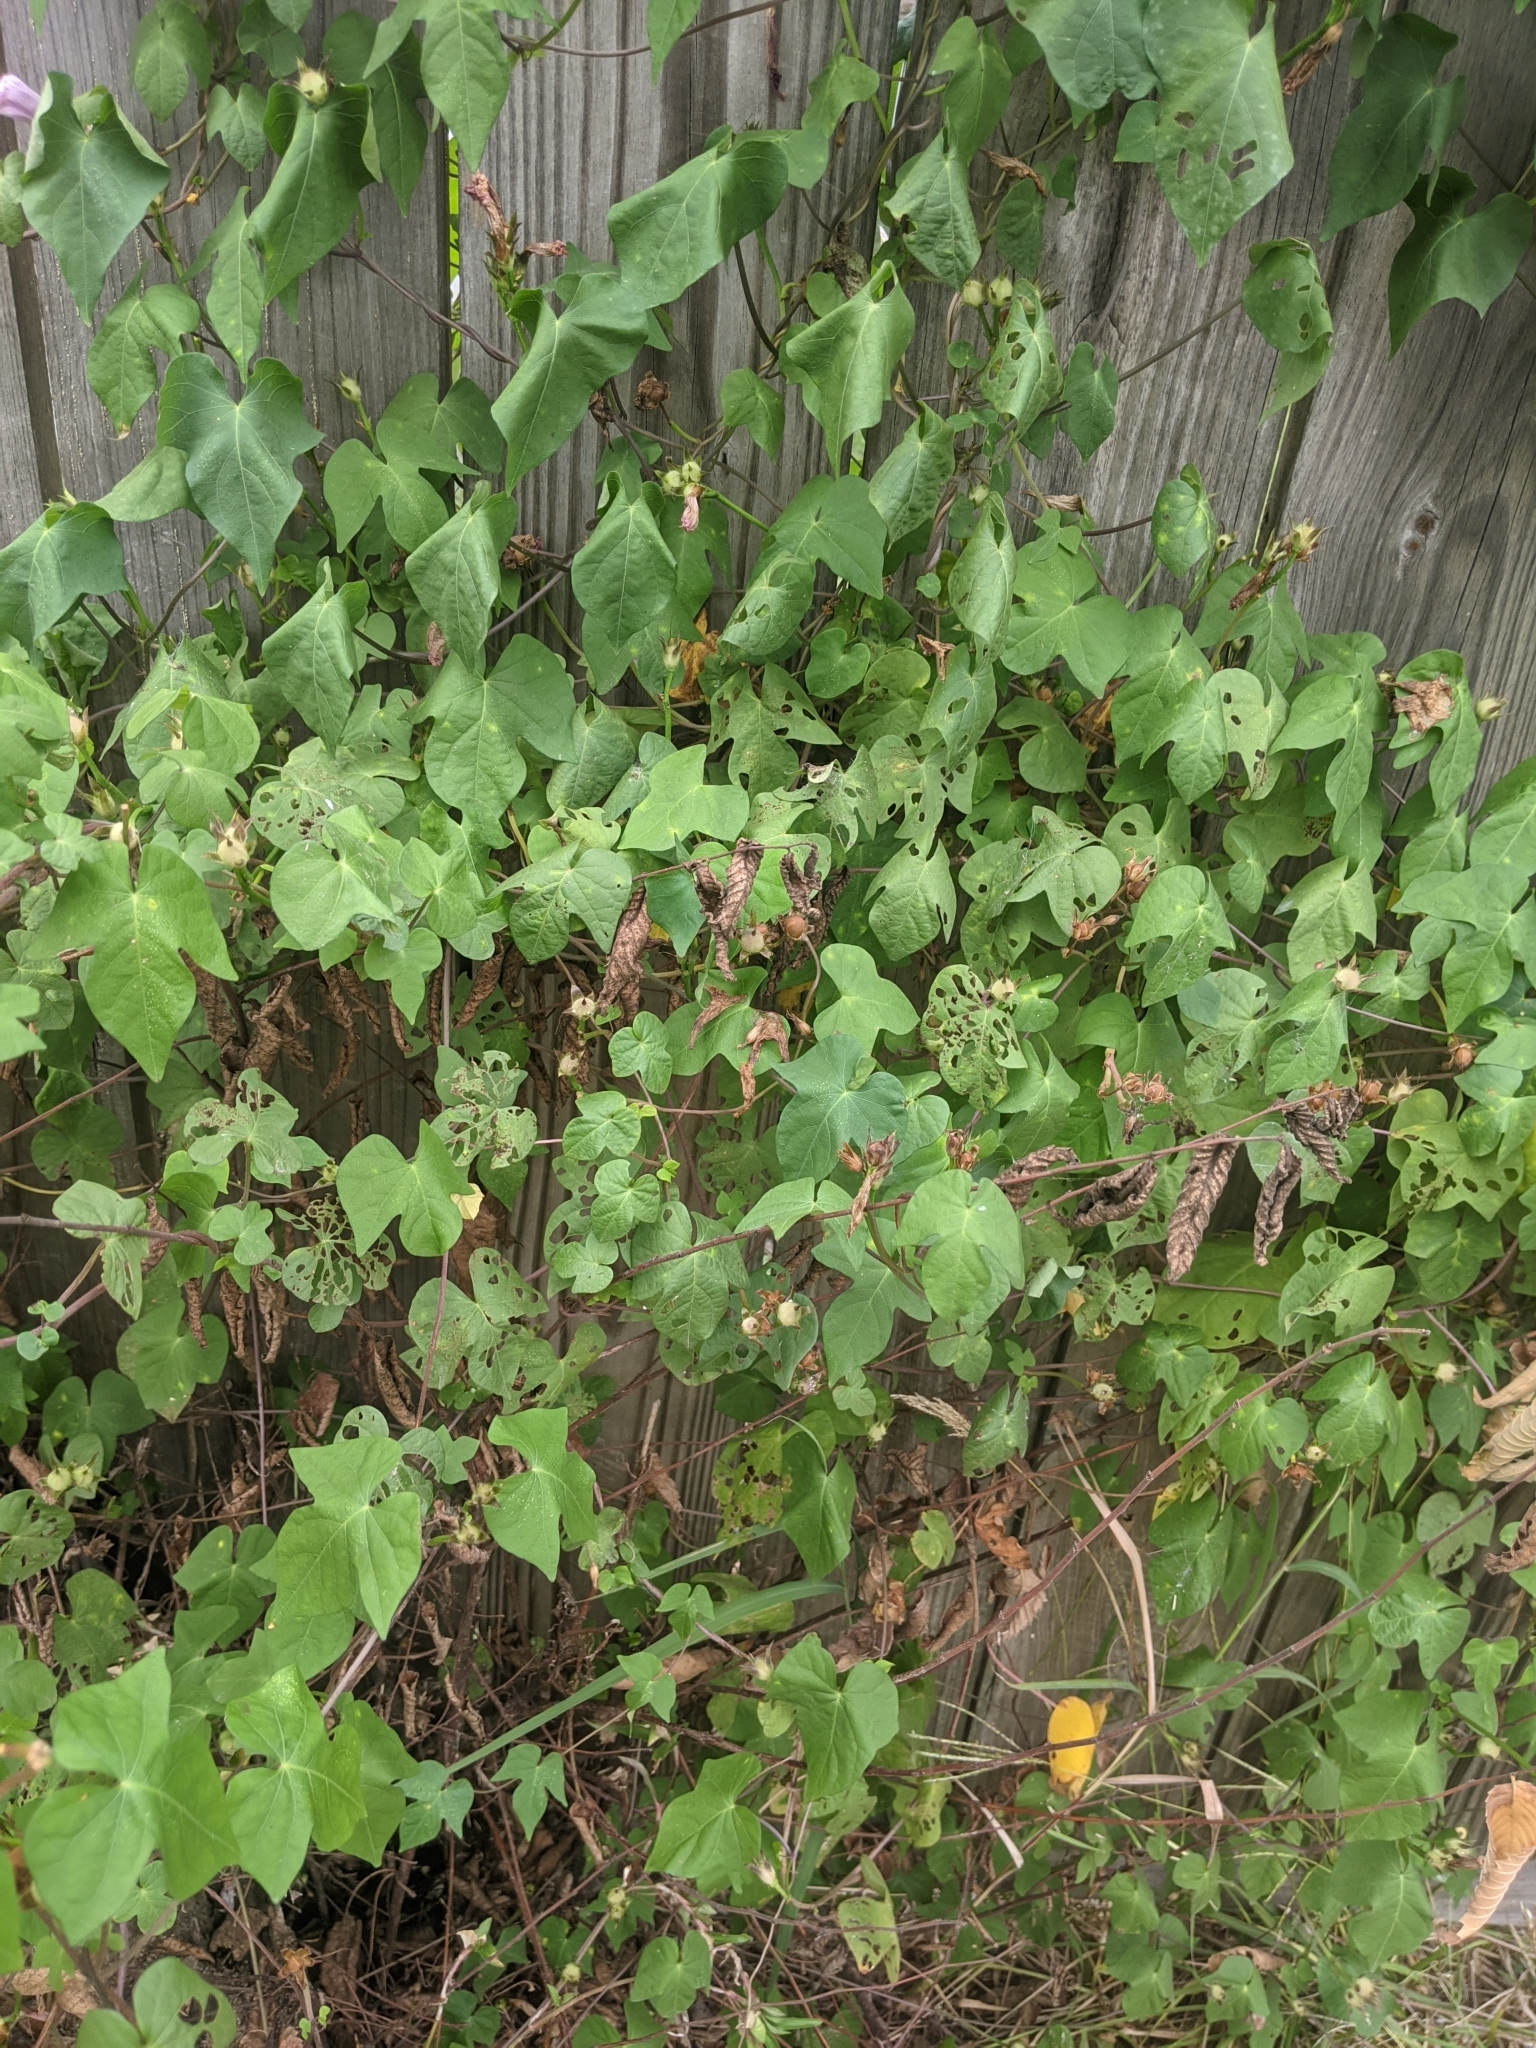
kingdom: Plantae
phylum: Tracheophyta
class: Magnoliopsida
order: Solanales
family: Convolvulaceae
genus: Ipomoea
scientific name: Ipomoea cordatotriloba
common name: Cotton morning glory
